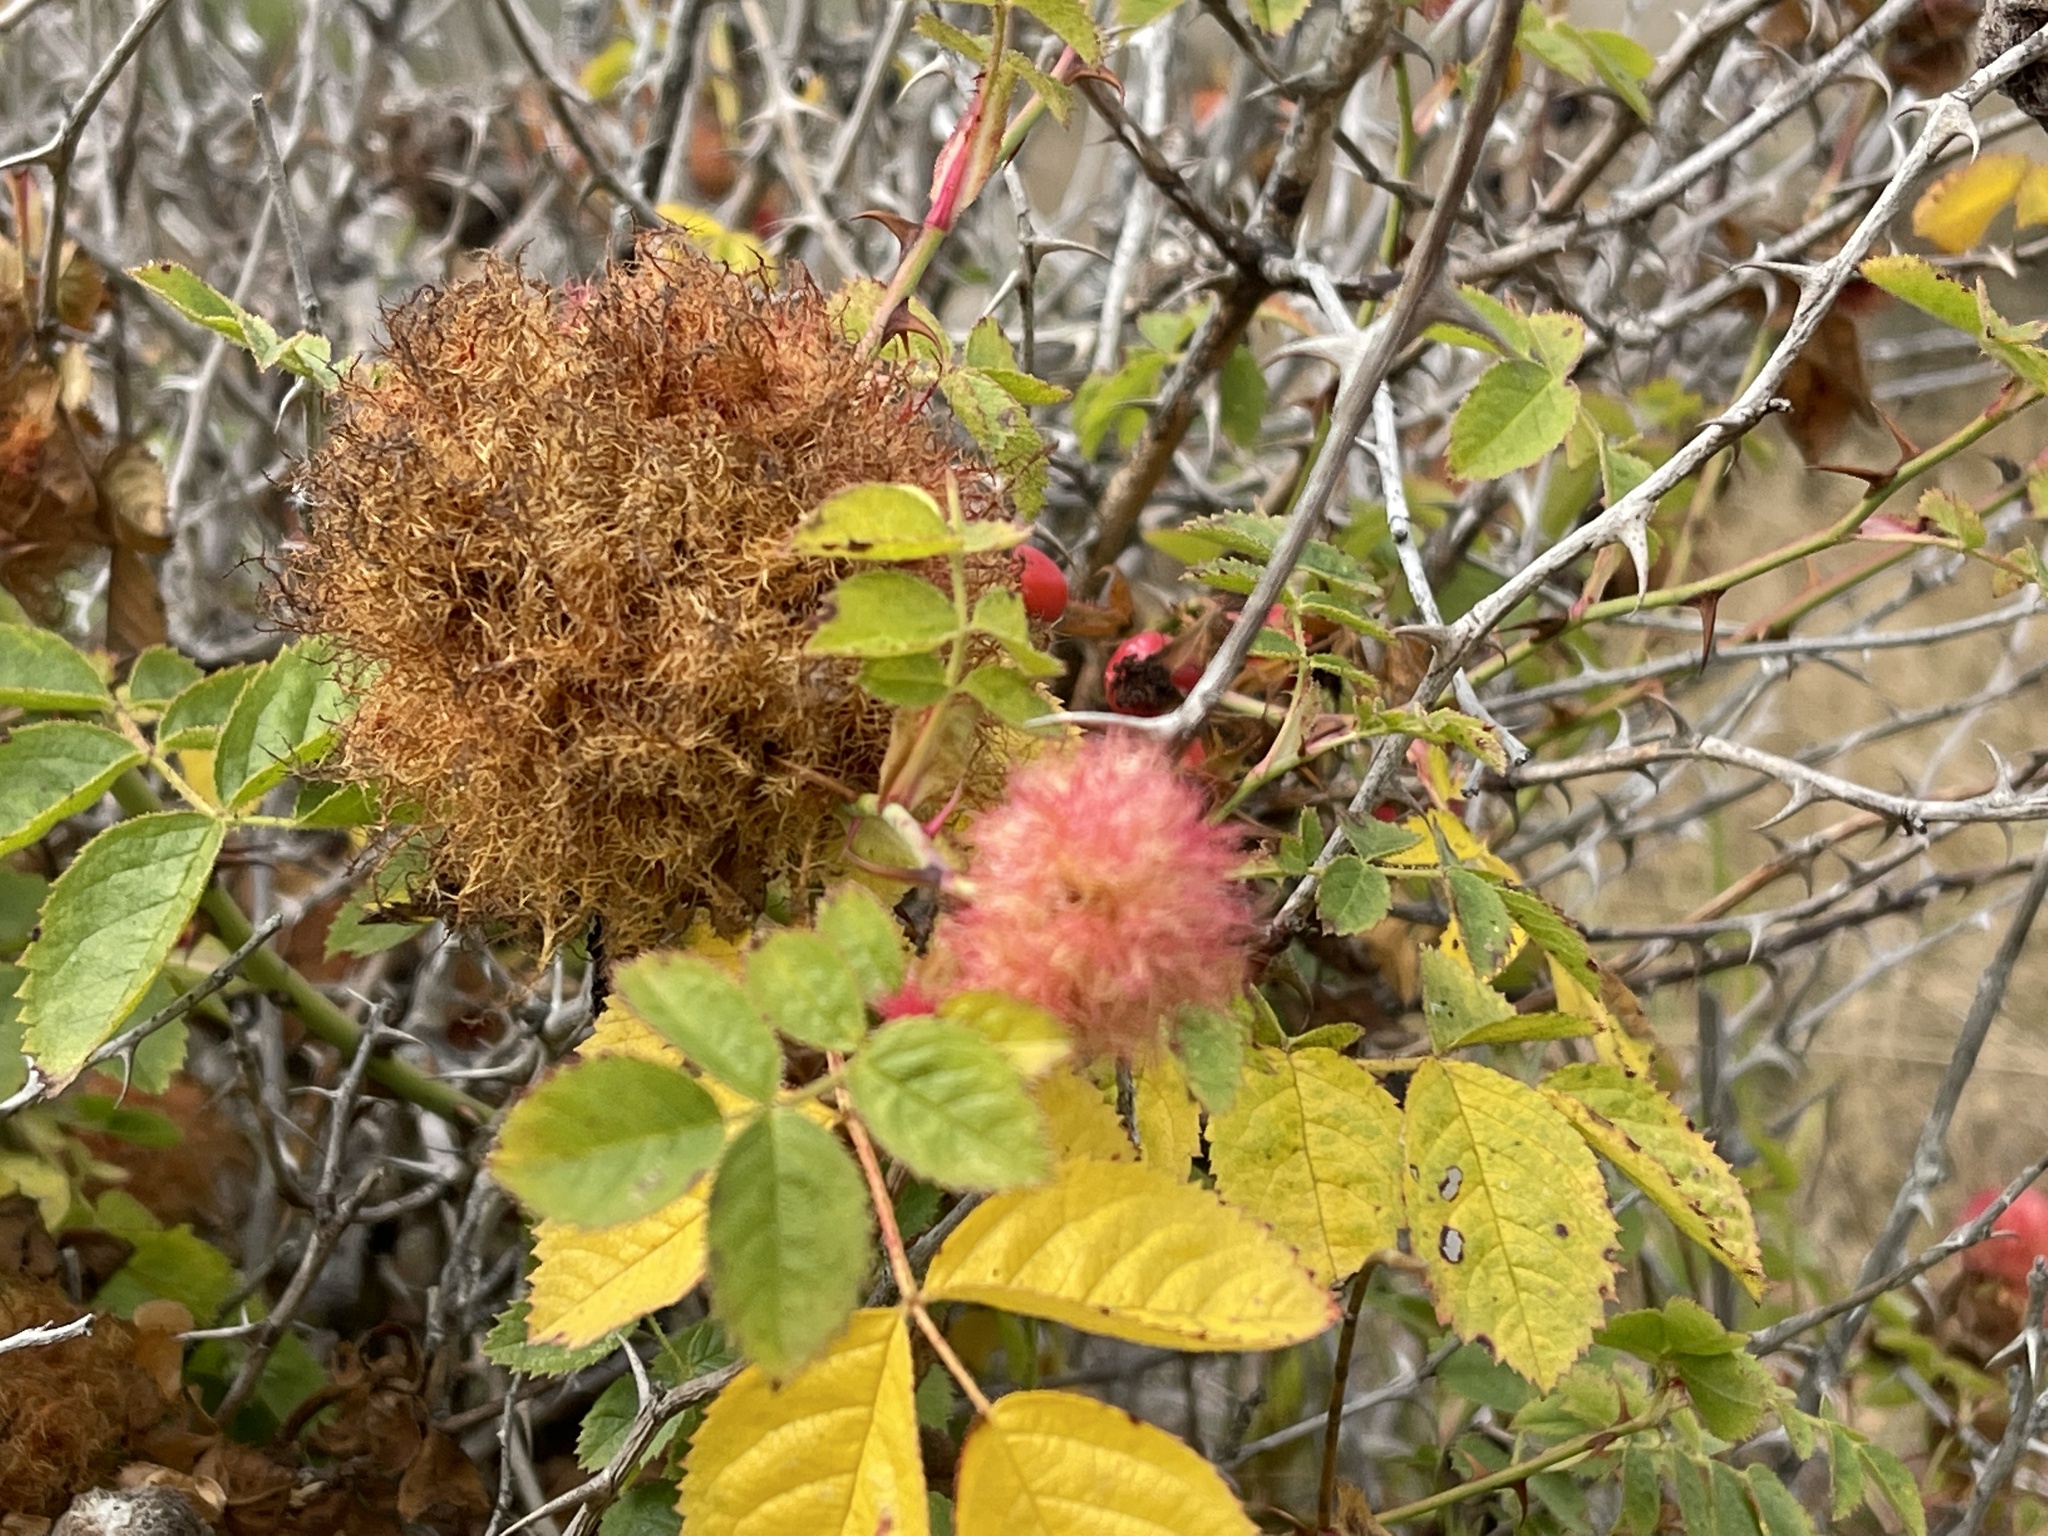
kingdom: Animalia
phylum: Arthropoda
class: Insecta
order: Hymenoptera
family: Cynipidae
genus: Diplolepis
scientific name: Diplolepis rosae
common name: Bedeguar gall
